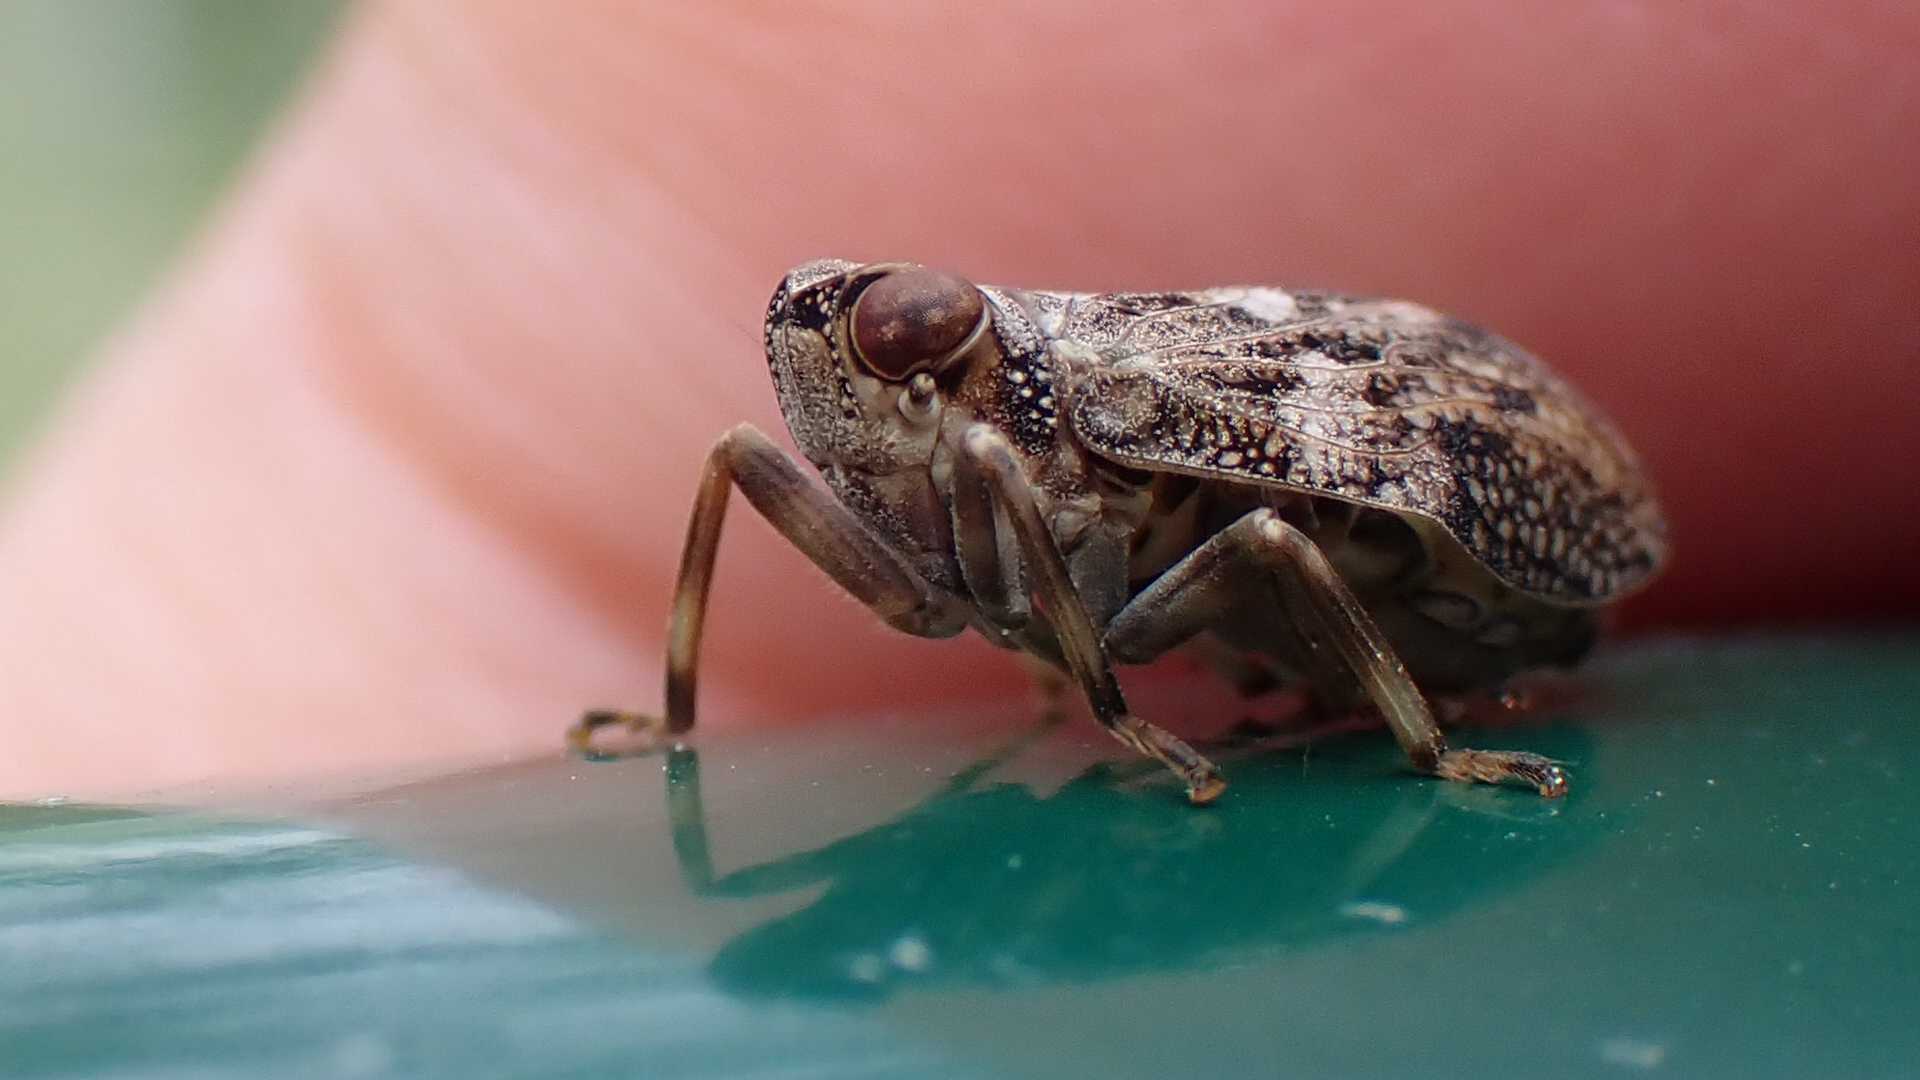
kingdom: Animalia
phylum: Arthropoda
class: Insecta
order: Hemiptera
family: Issidae
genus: Issus
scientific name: Issus coleoptratus
